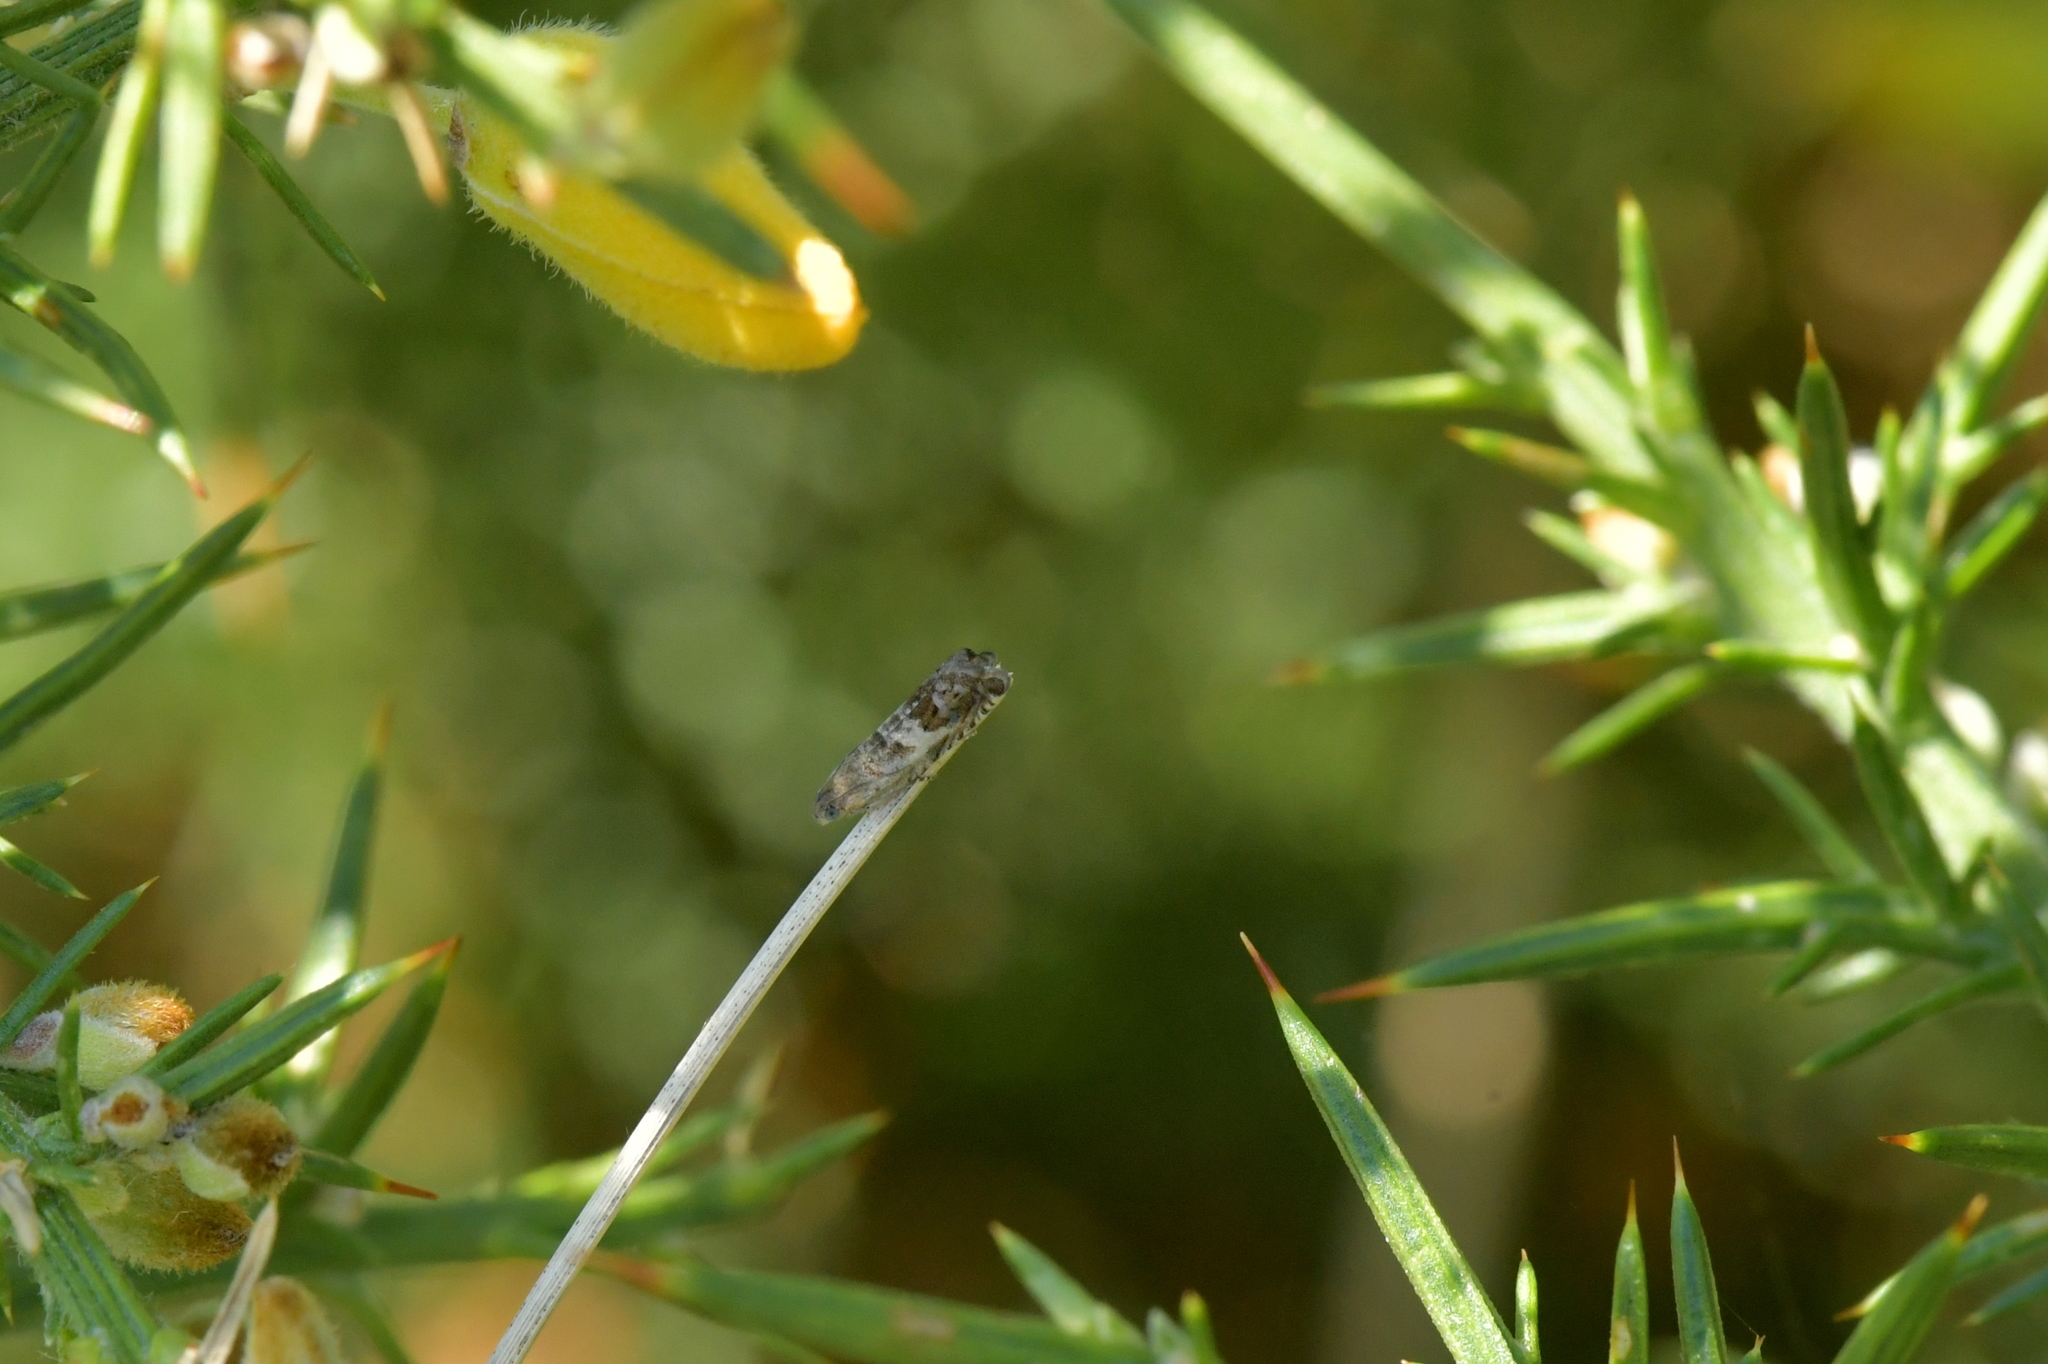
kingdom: Animalia
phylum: Arthropoda
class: Insecta
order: Lepidoptera
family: Tortricidae
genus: Cydia
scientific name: Cydia succedana
